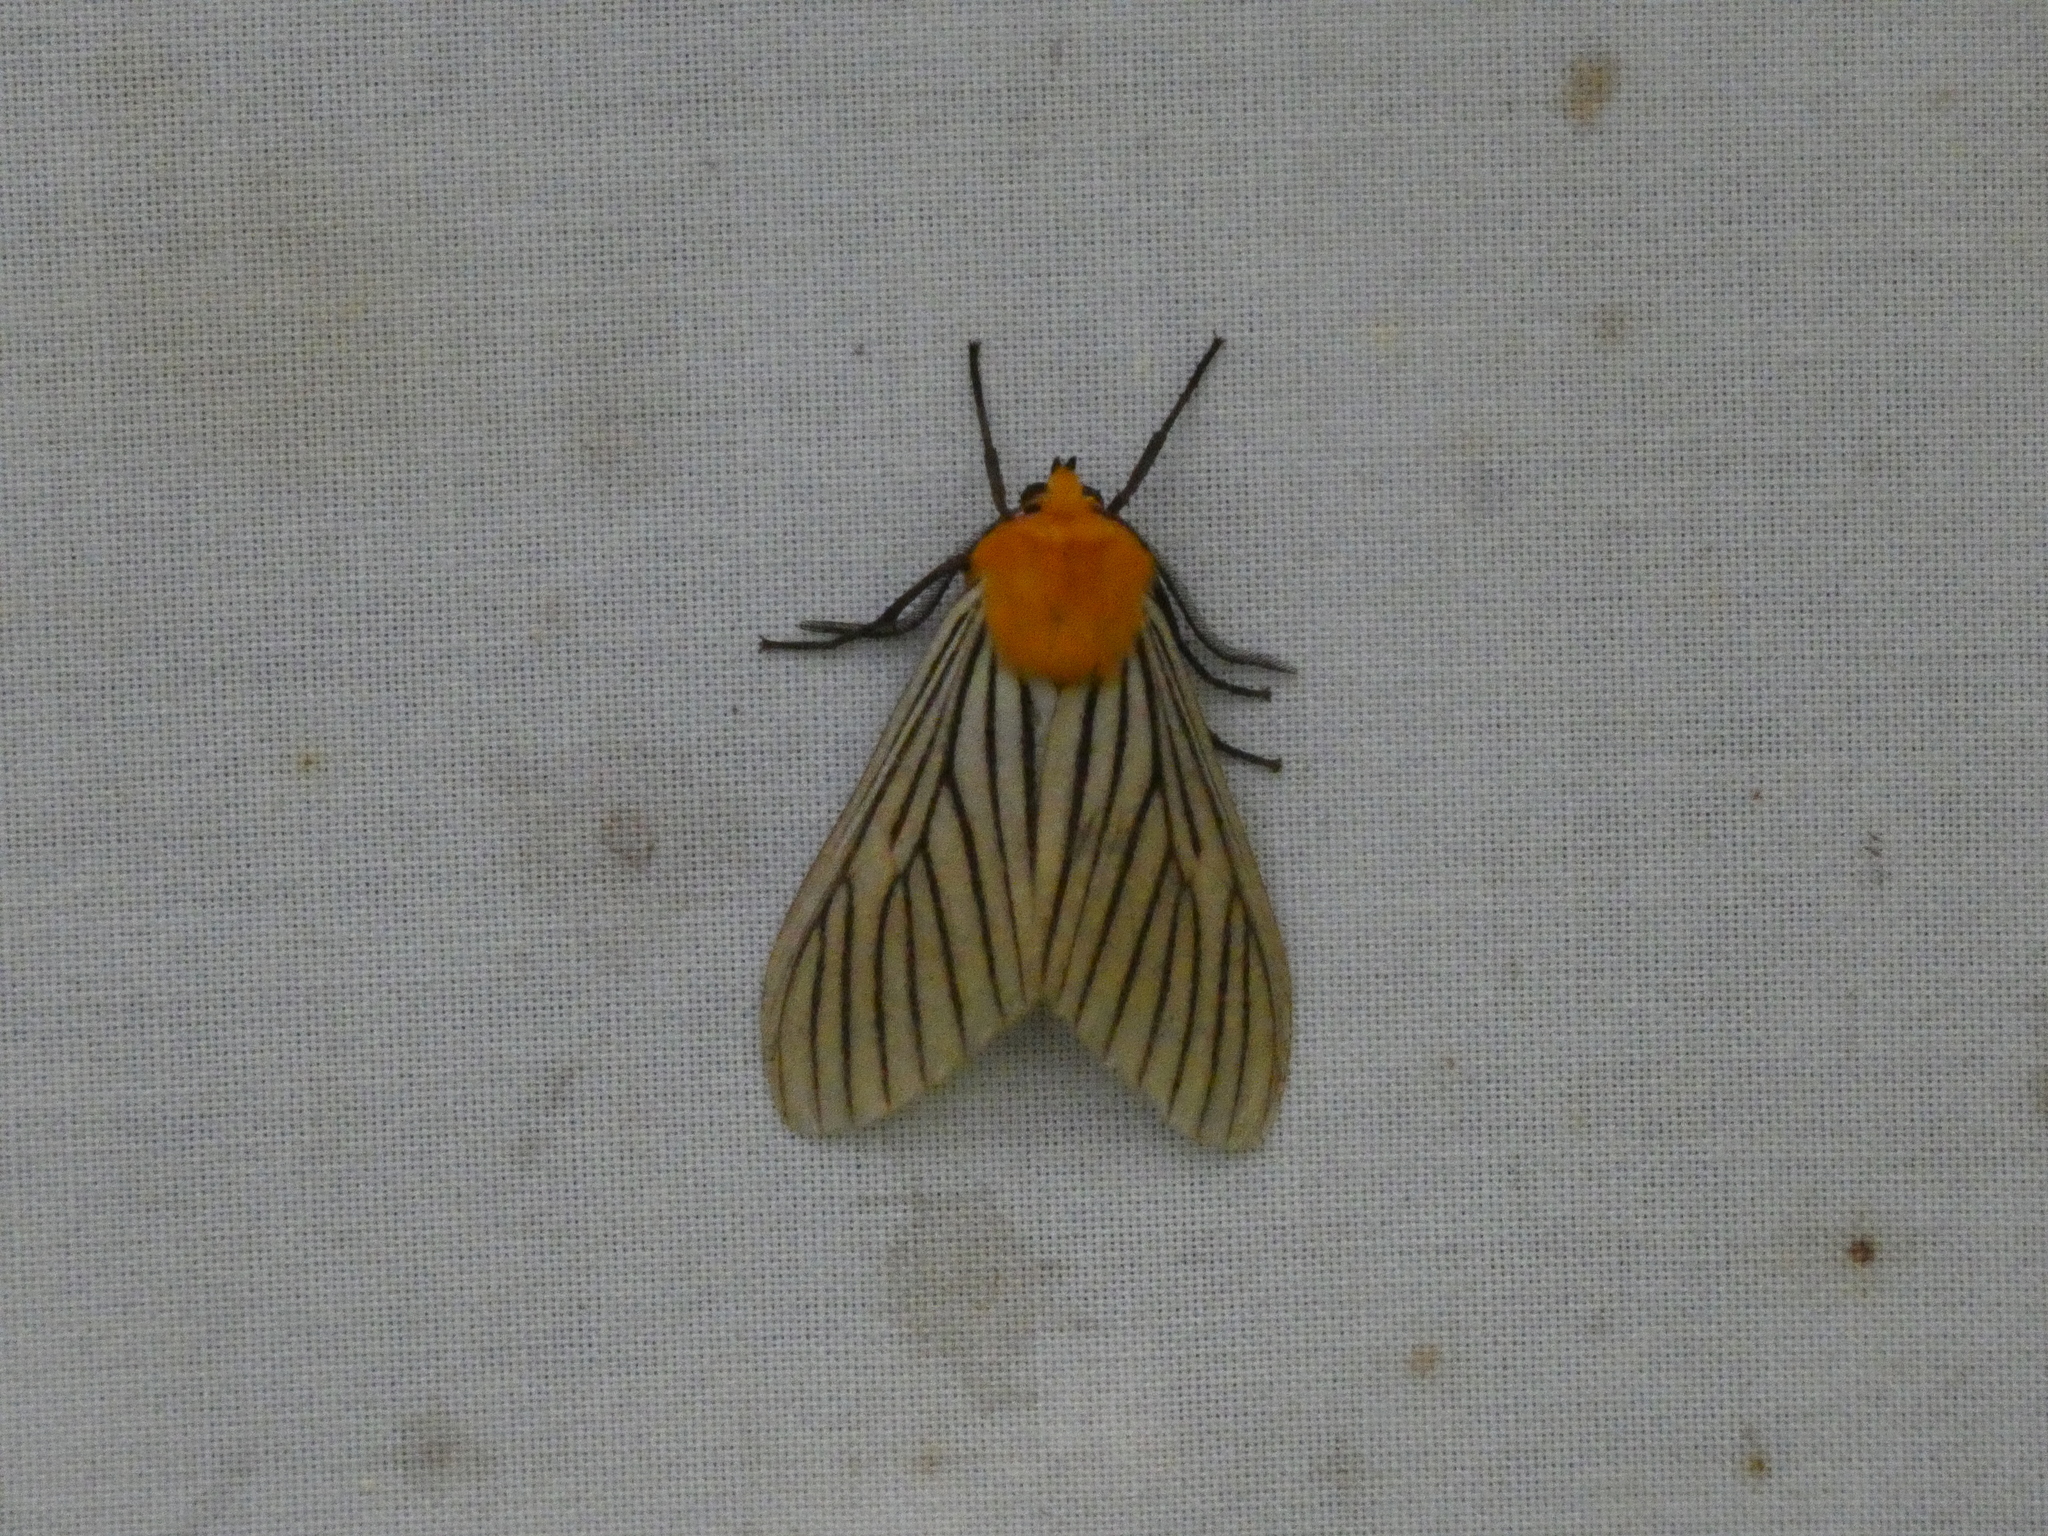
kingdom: Animalia
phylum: Arthropoda
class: Insecta
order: Lepidoptera
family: Erebidae
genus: Pseudischnocampa
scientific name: Pseudischnocampa
